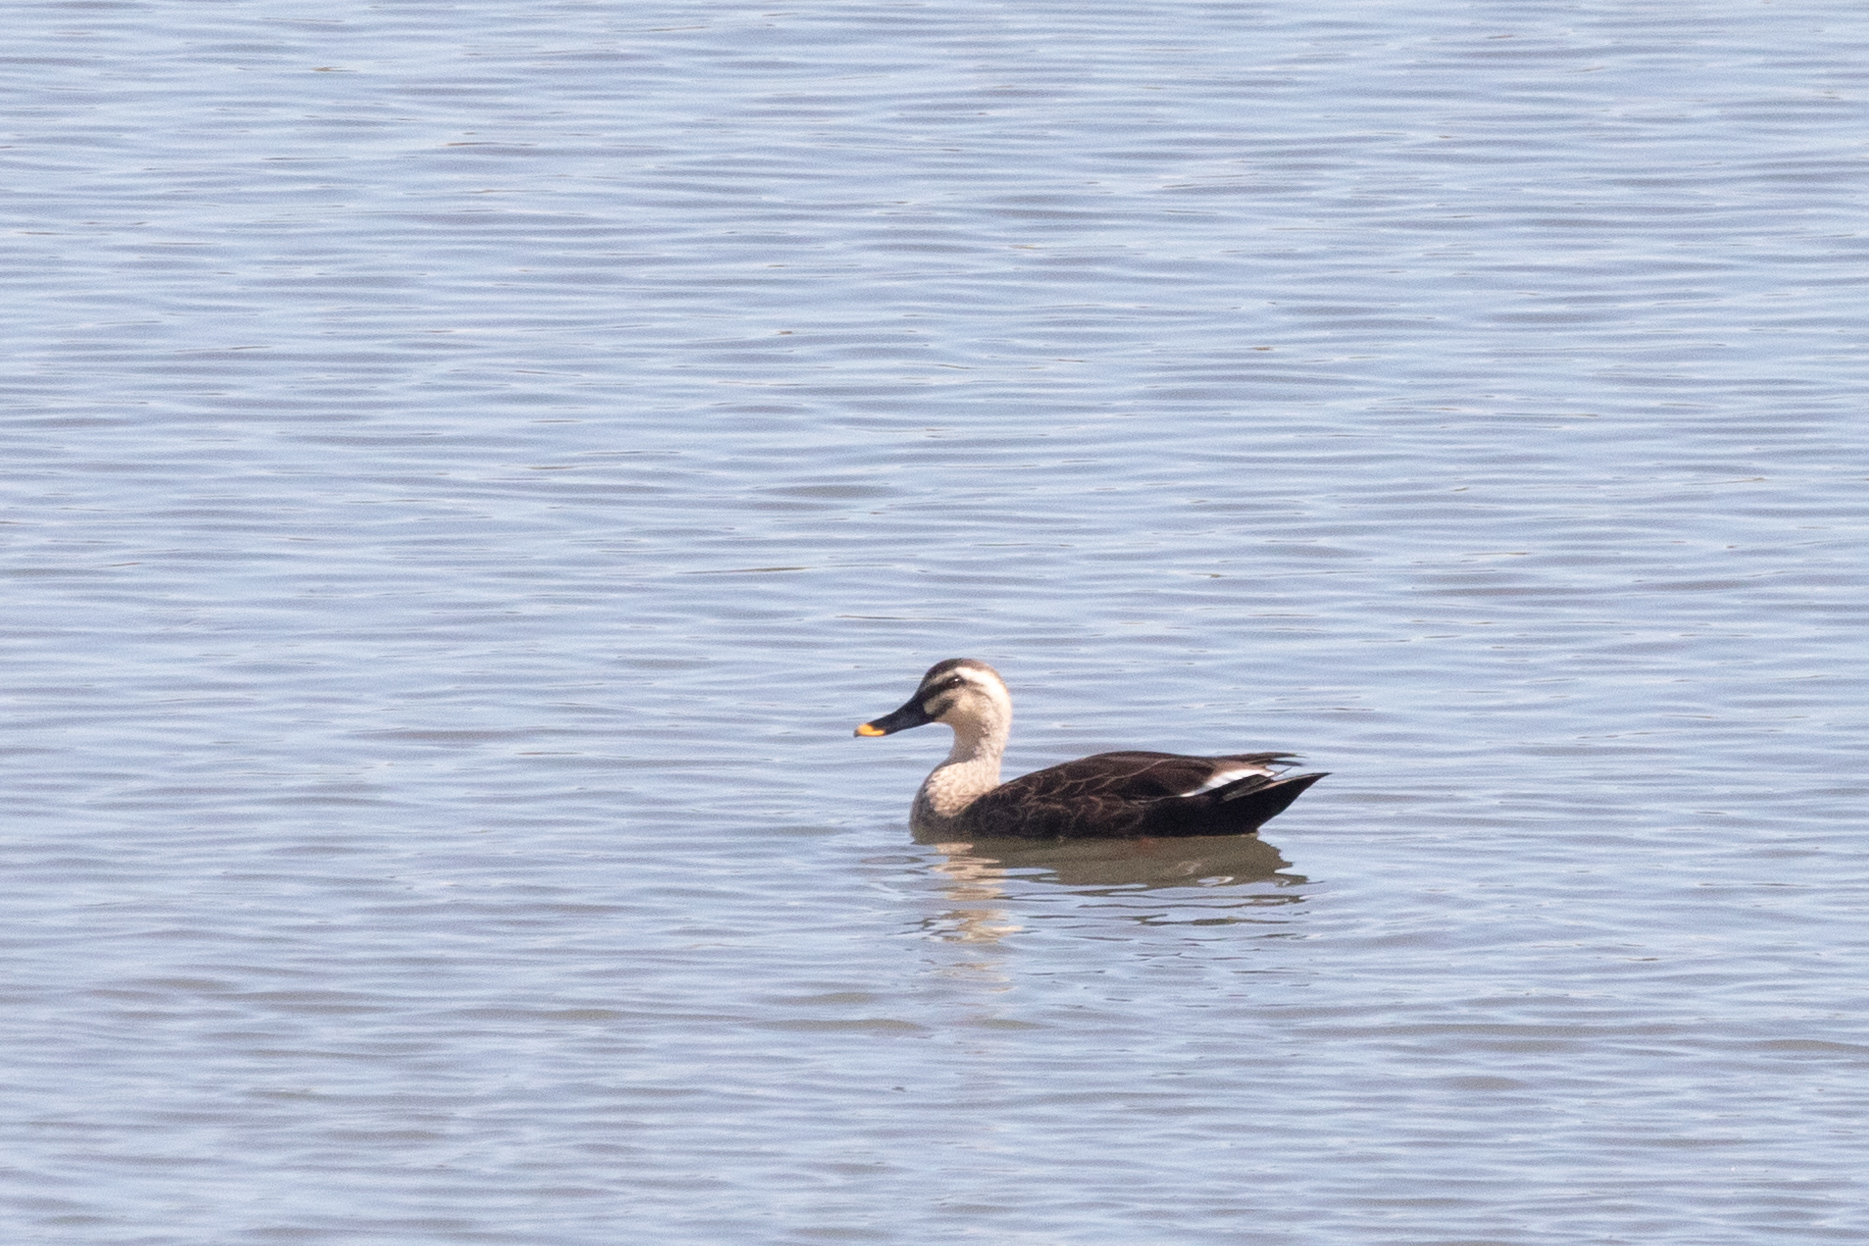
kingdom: Animalia
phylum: Chordata
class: Aves
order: Anseriformes
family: Anatidae
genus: Anas
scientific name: Anas zonorhyncha
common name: Eastern spot-billed duck
